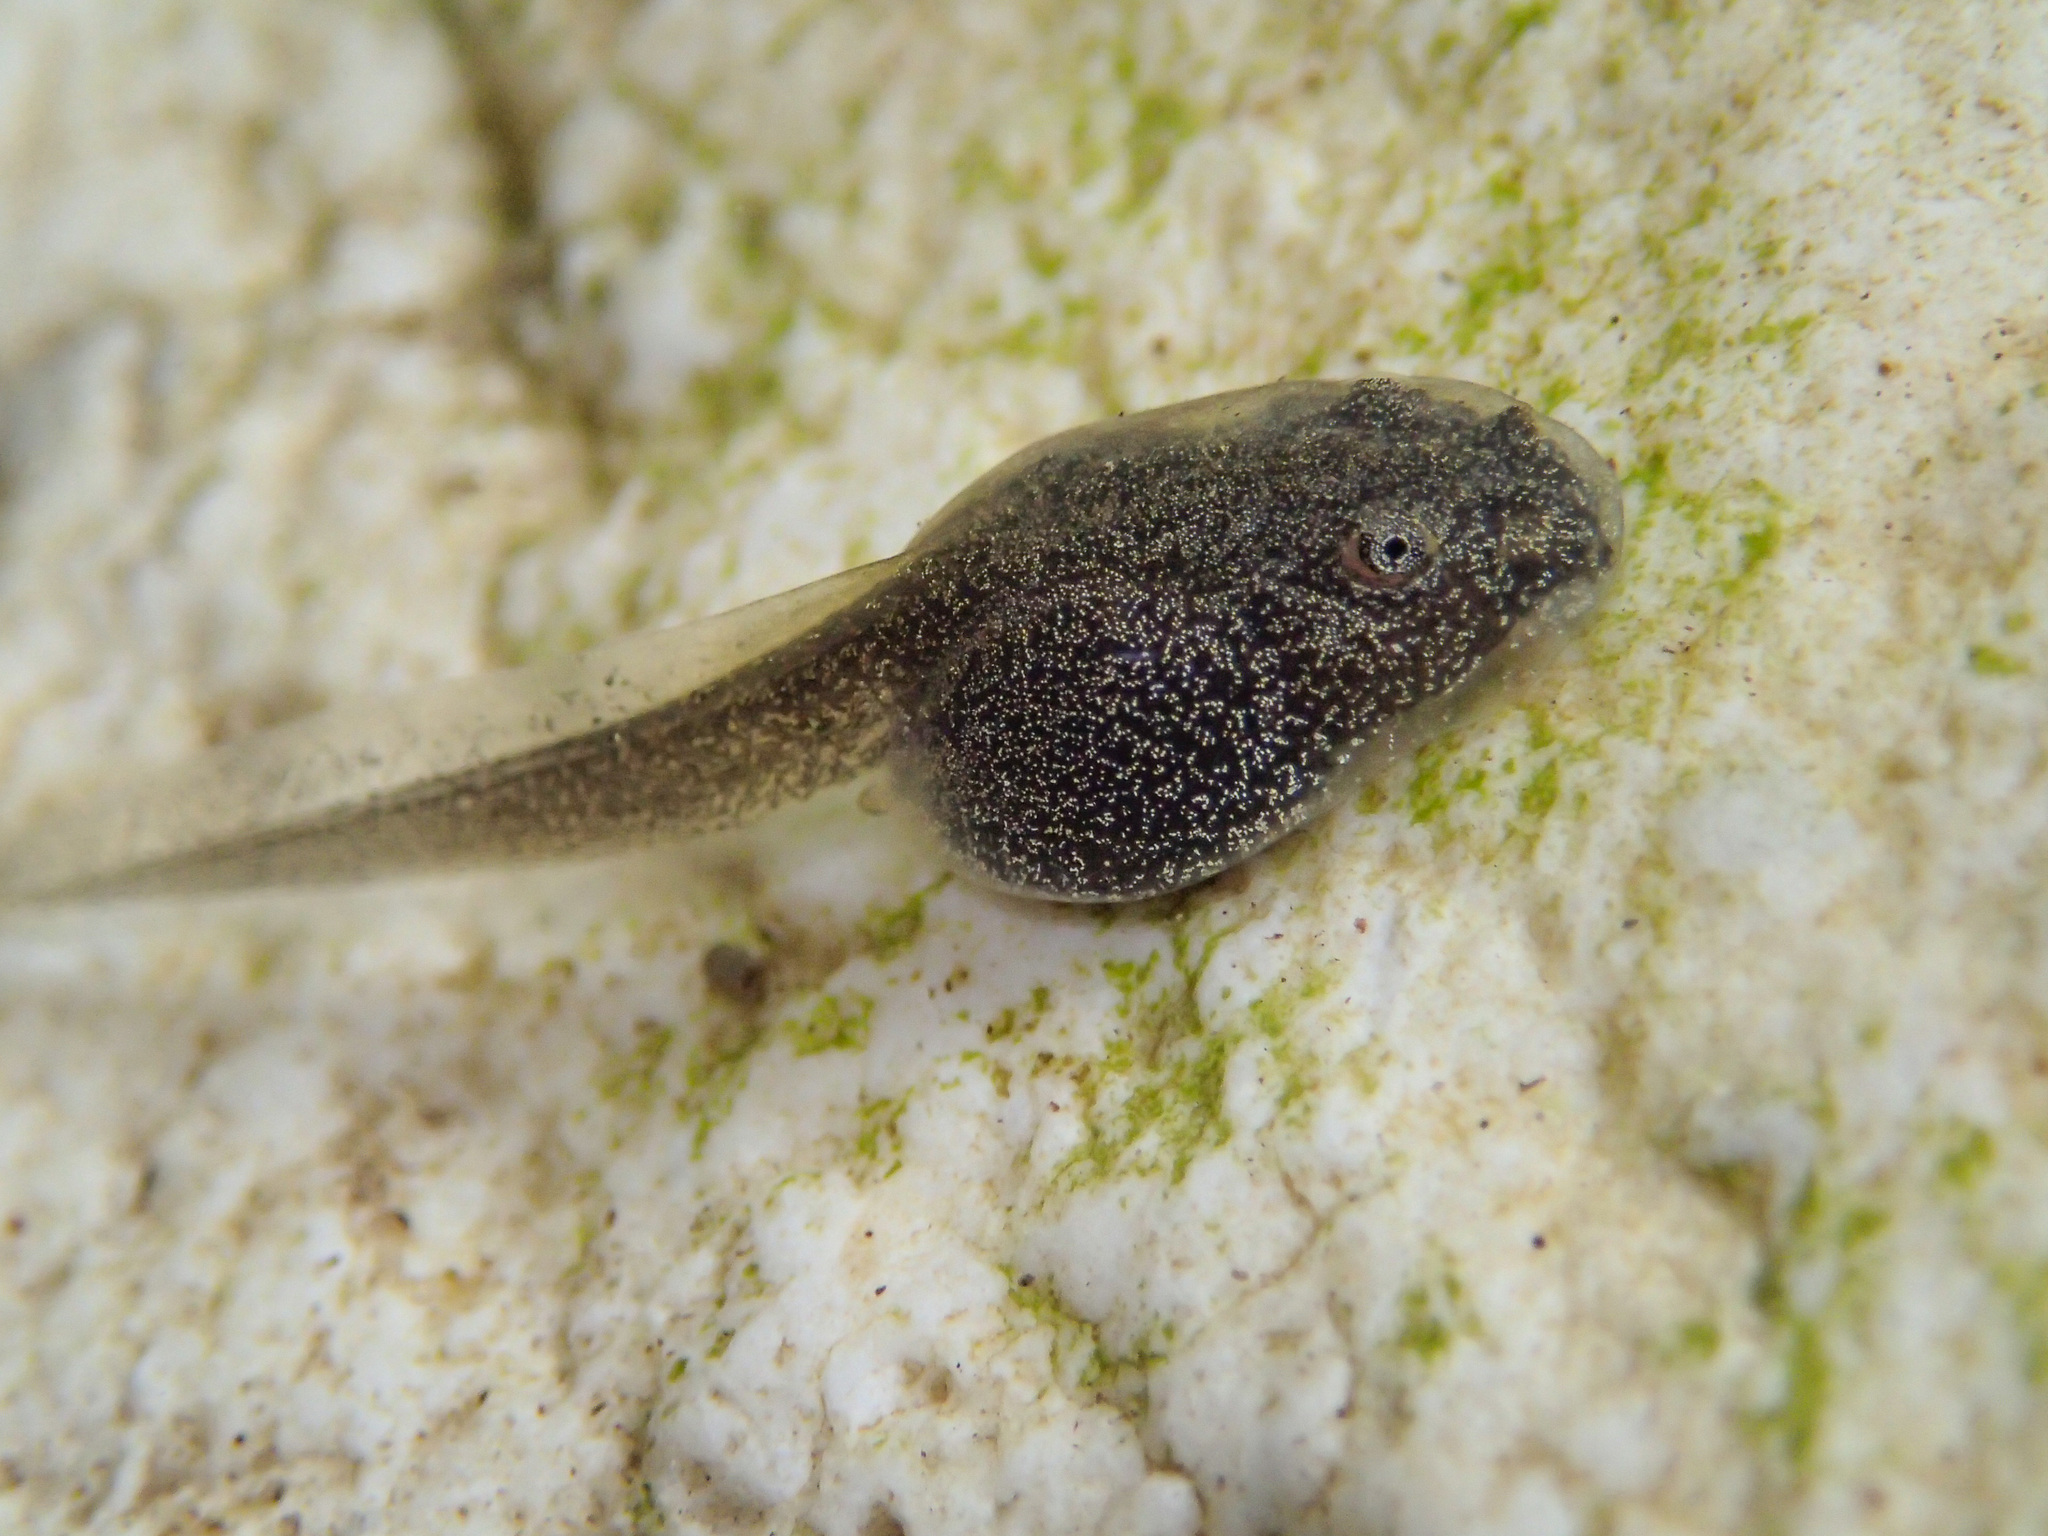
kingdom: Animalia
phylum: Chordata
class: Amphibia
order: Anura
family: Ranidae
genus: Rana
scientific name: Rana italica
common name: Italian stream frog
